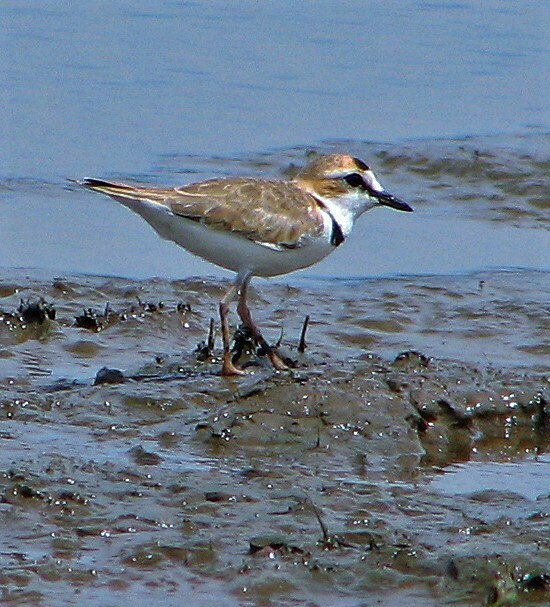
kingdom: Animalia
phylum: Chordata
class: Aves
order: Charadriiformes
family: Charadriidae
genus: Anarhynchus
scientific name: Anarhynchus
